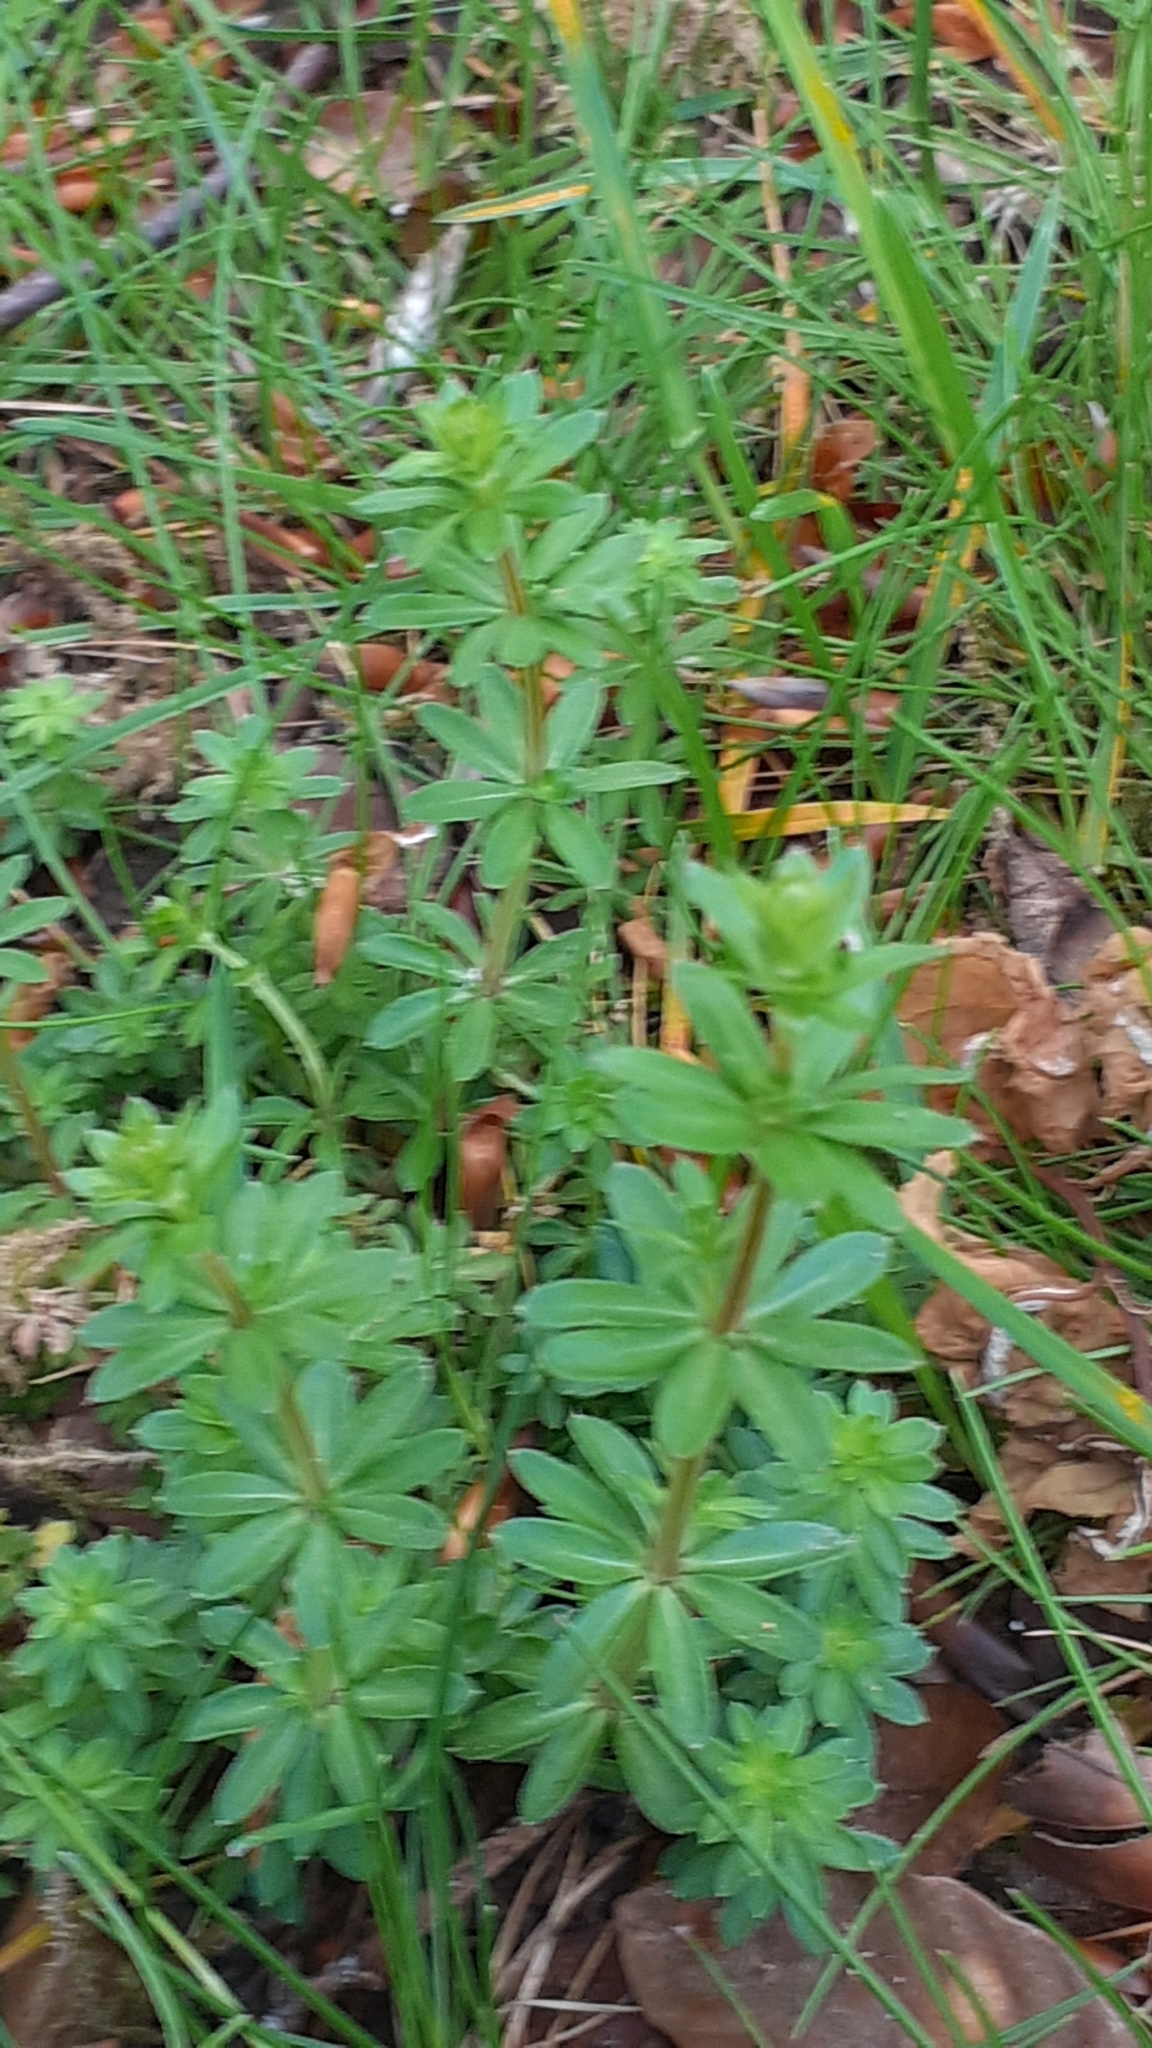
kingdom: Plantae
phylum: Tracheophyta
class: Magnoliopsida
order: Gentianales
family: Rubiaceae
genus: Galium
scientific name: Galium mollugo
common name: Hedge bedstraw
